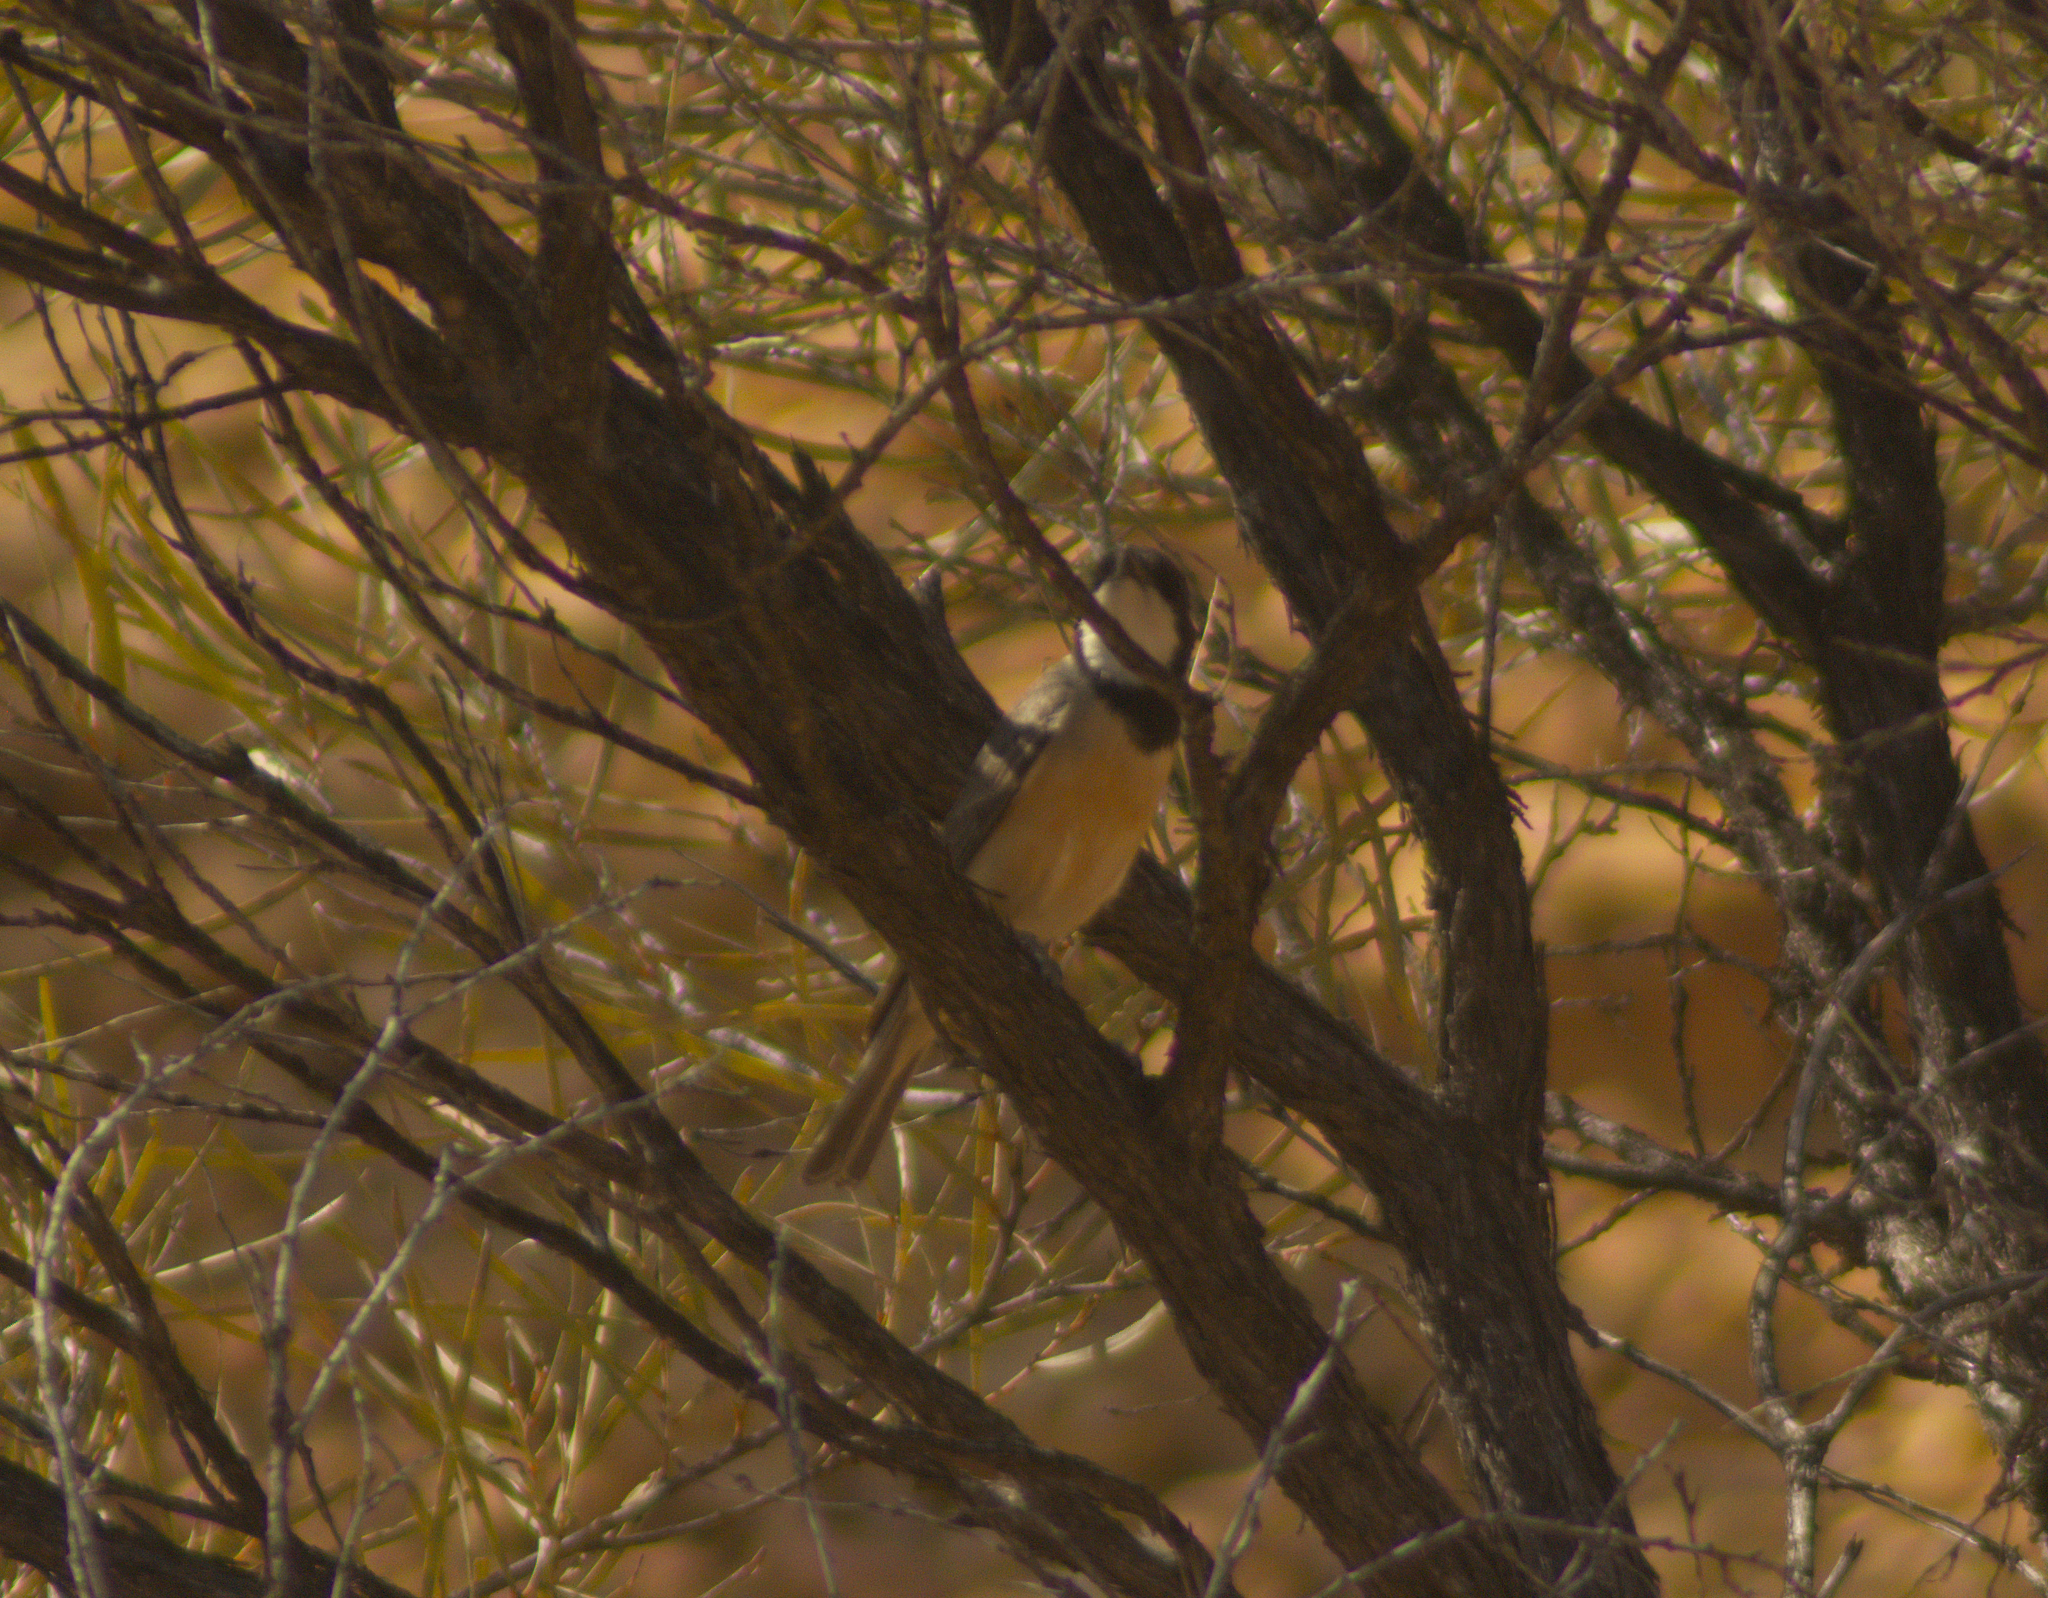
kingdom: Animalia
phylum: Chordata
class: Aves
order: Passeriformes
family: Pachycephalidae
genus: Pachycephala
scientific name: Pachycephala rufiventris
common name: Rufous whistler
